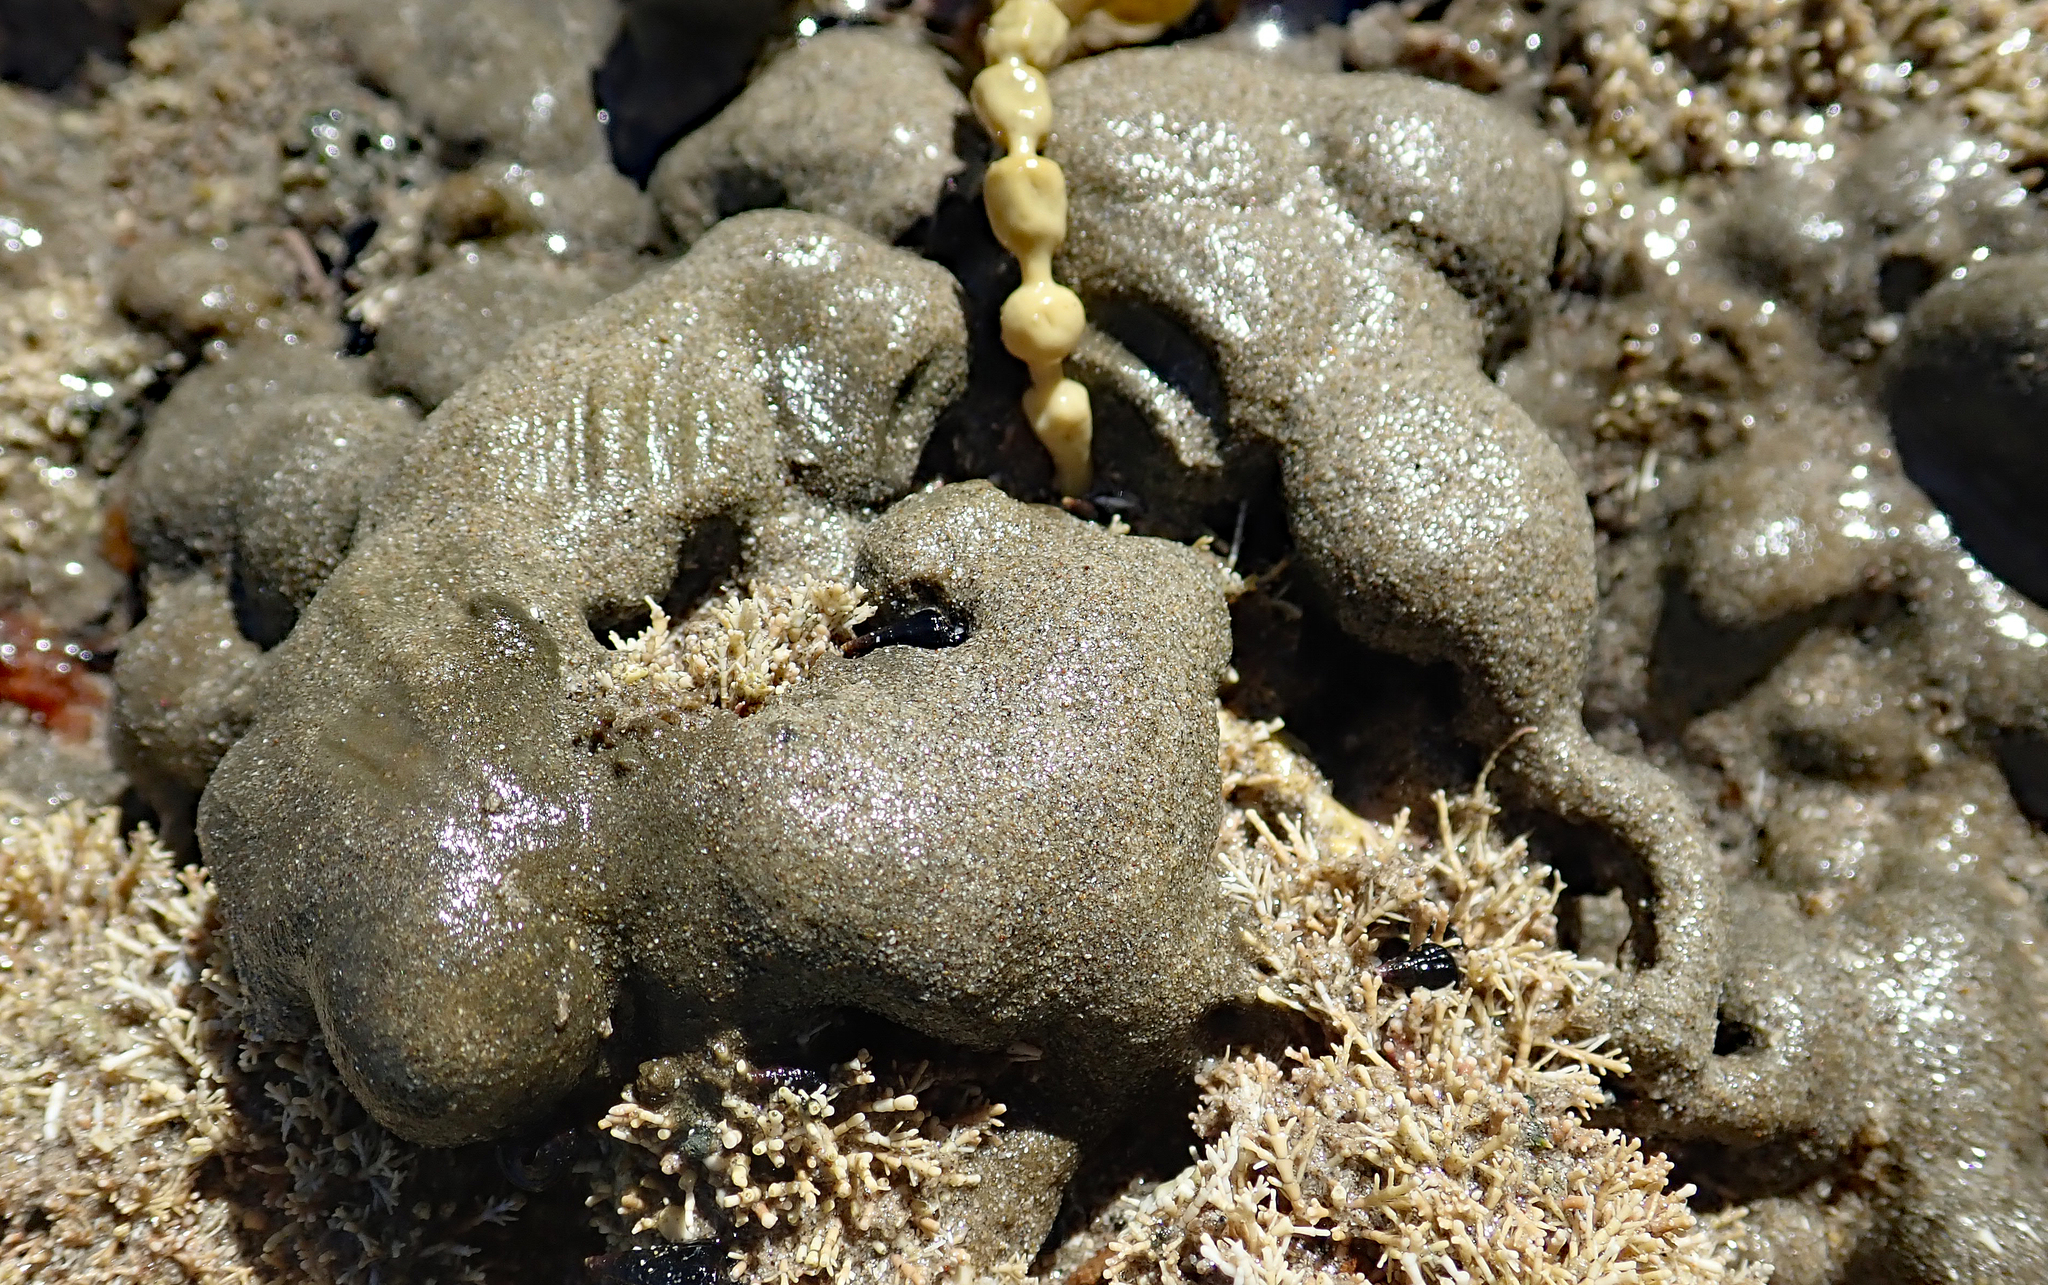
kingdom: Plantae
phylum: Chlorophyta
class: Ulvophyceae
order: Cladophorales
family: Cladophoraceae
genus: Cladophora
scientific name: Cladophora albida
